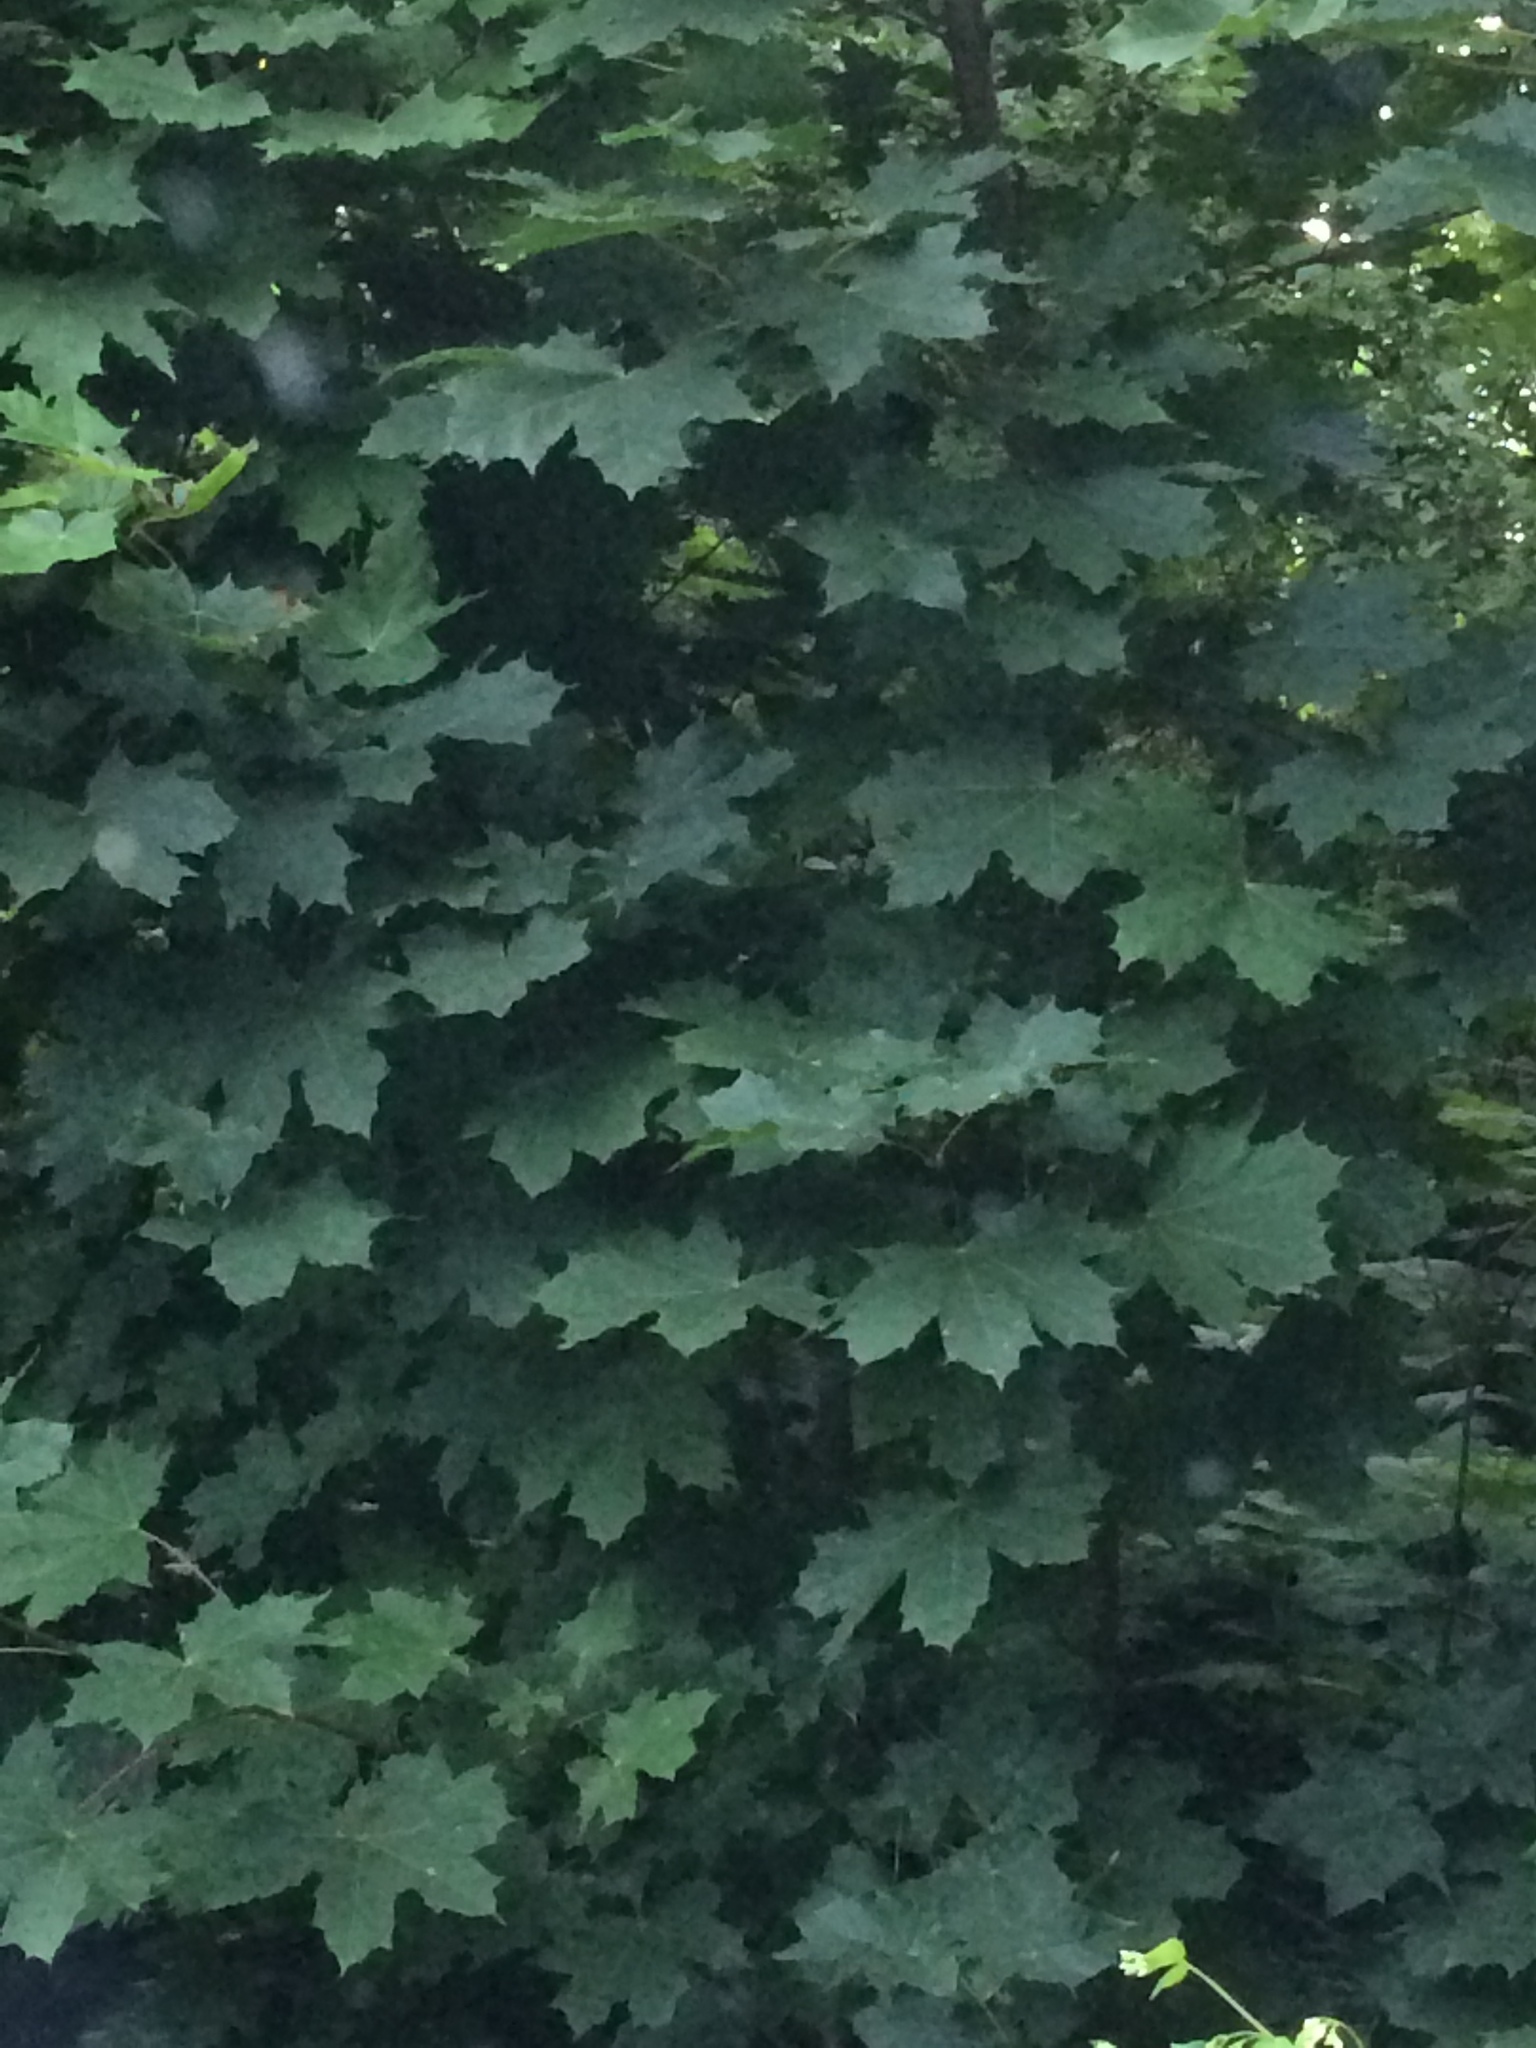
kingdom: Plantae
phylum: Tracheophyta
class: Magnoliopsida
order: Sapindales
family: Sapindaceae
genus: Acer
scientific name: Acer platanoides
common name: Norway maple
